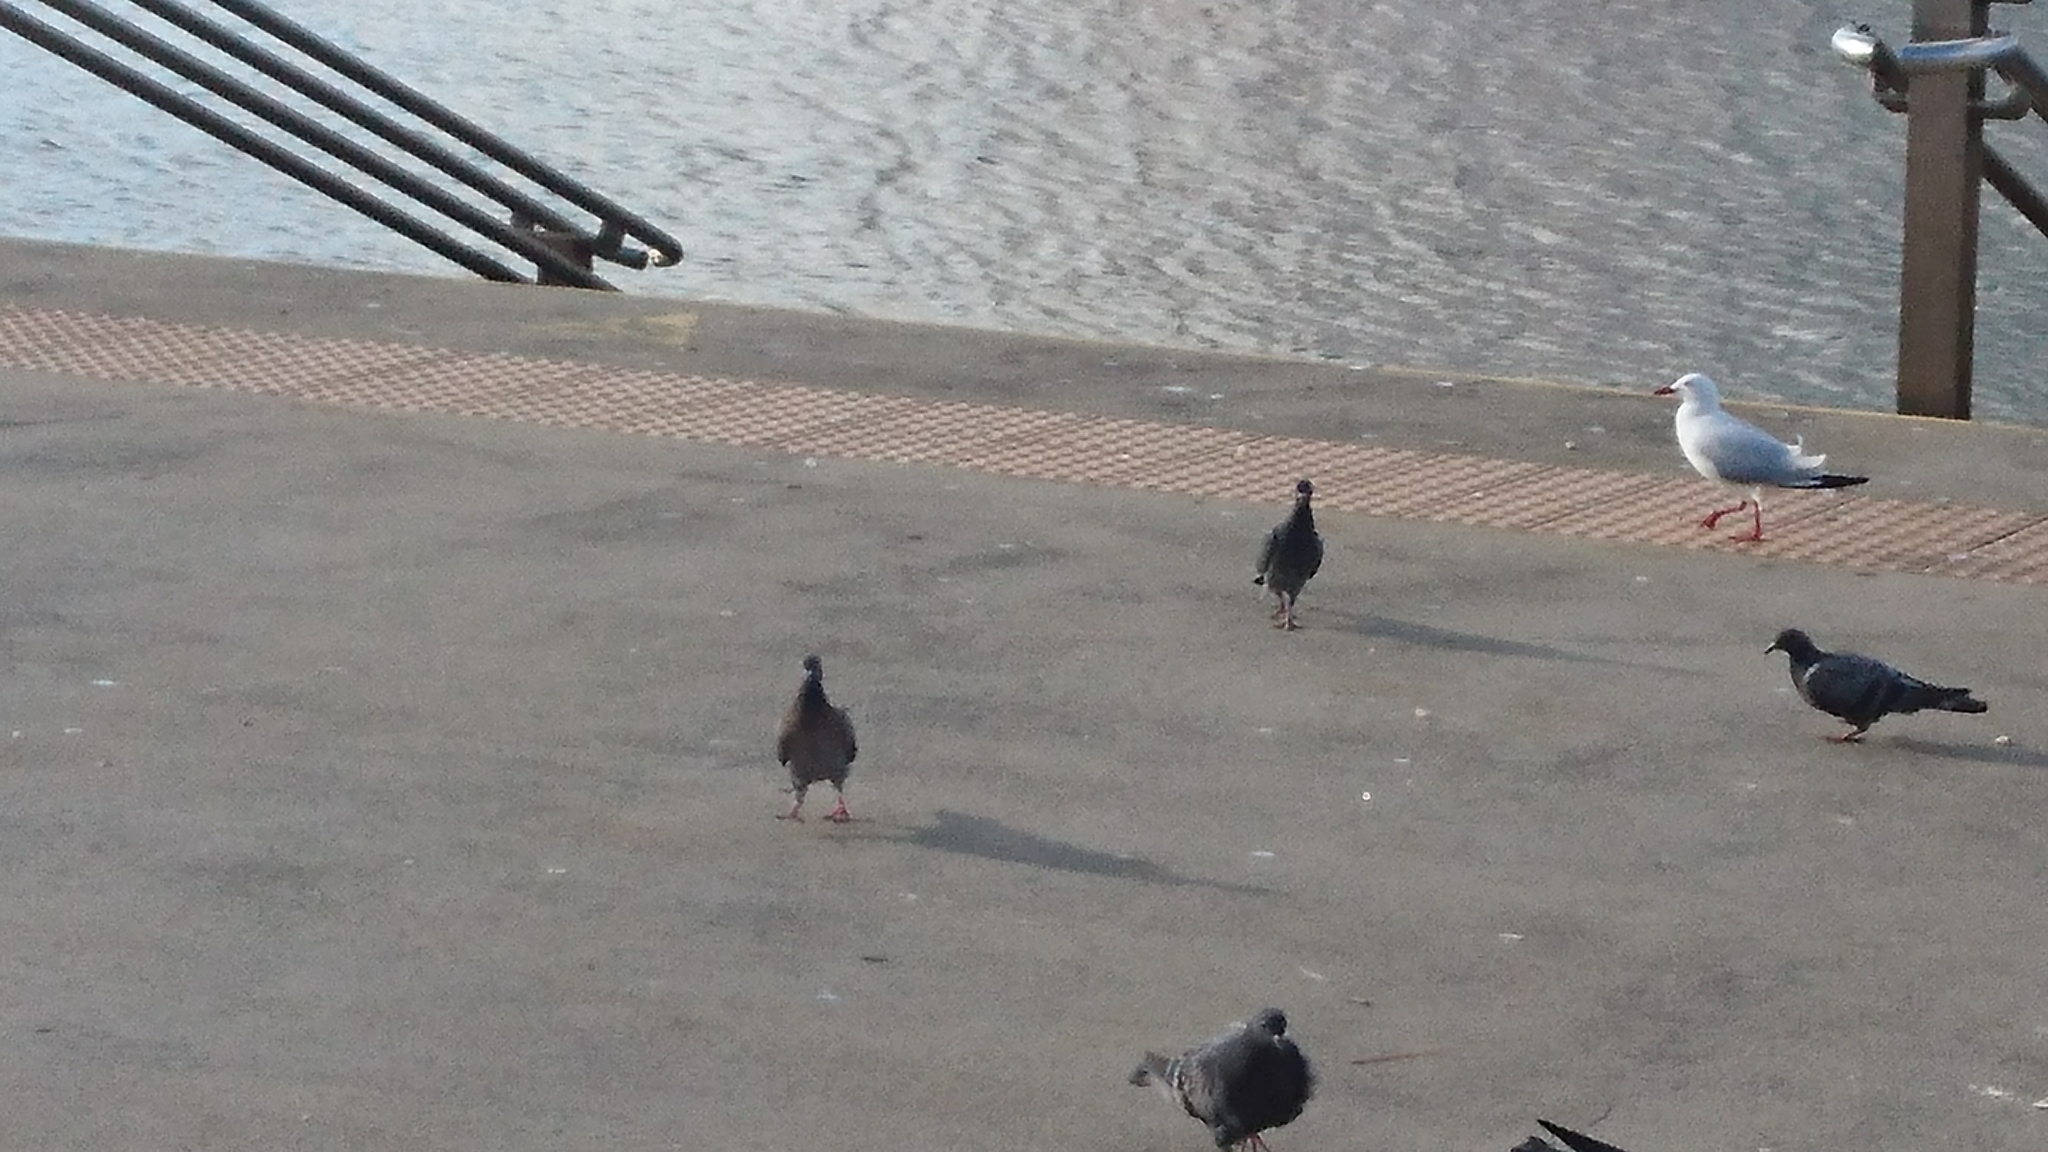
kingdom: Animalia
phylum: Chordata
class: Aves
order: Columbiformes
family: Columbidae
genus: Columba
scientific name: Columba livia
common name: Rock pigeon
